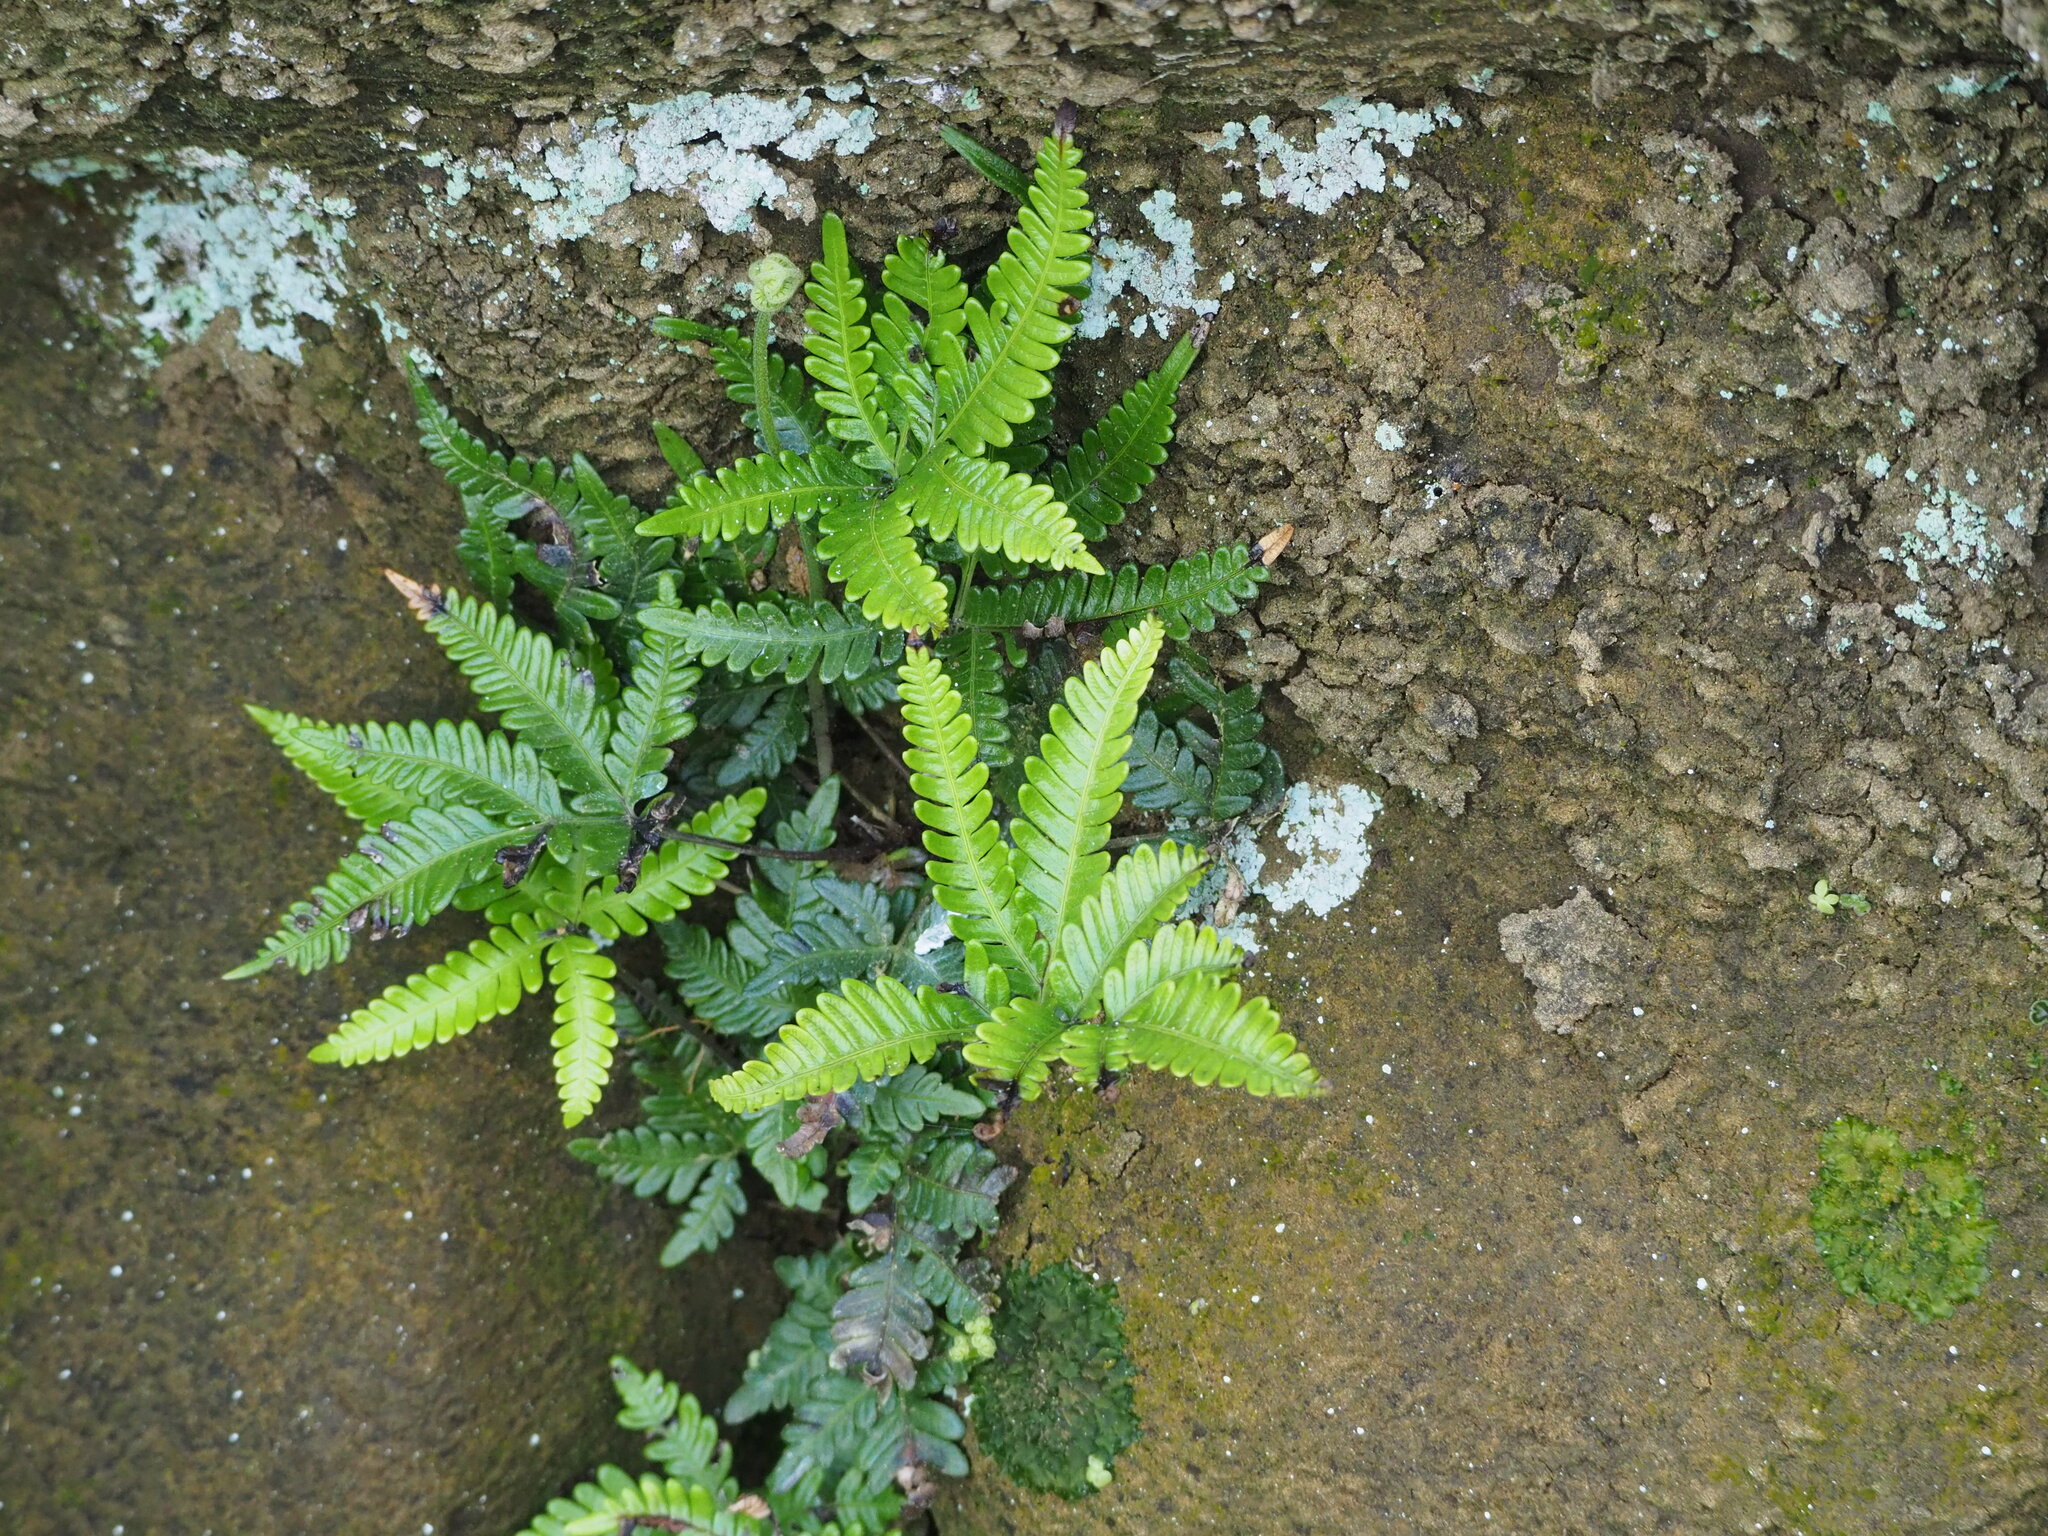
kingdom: Plantae
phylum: Tracheophyta
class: Polypodiopsida
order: Polypodiales
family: Pteridaceae
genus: Pteris
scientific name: Pteris minor
